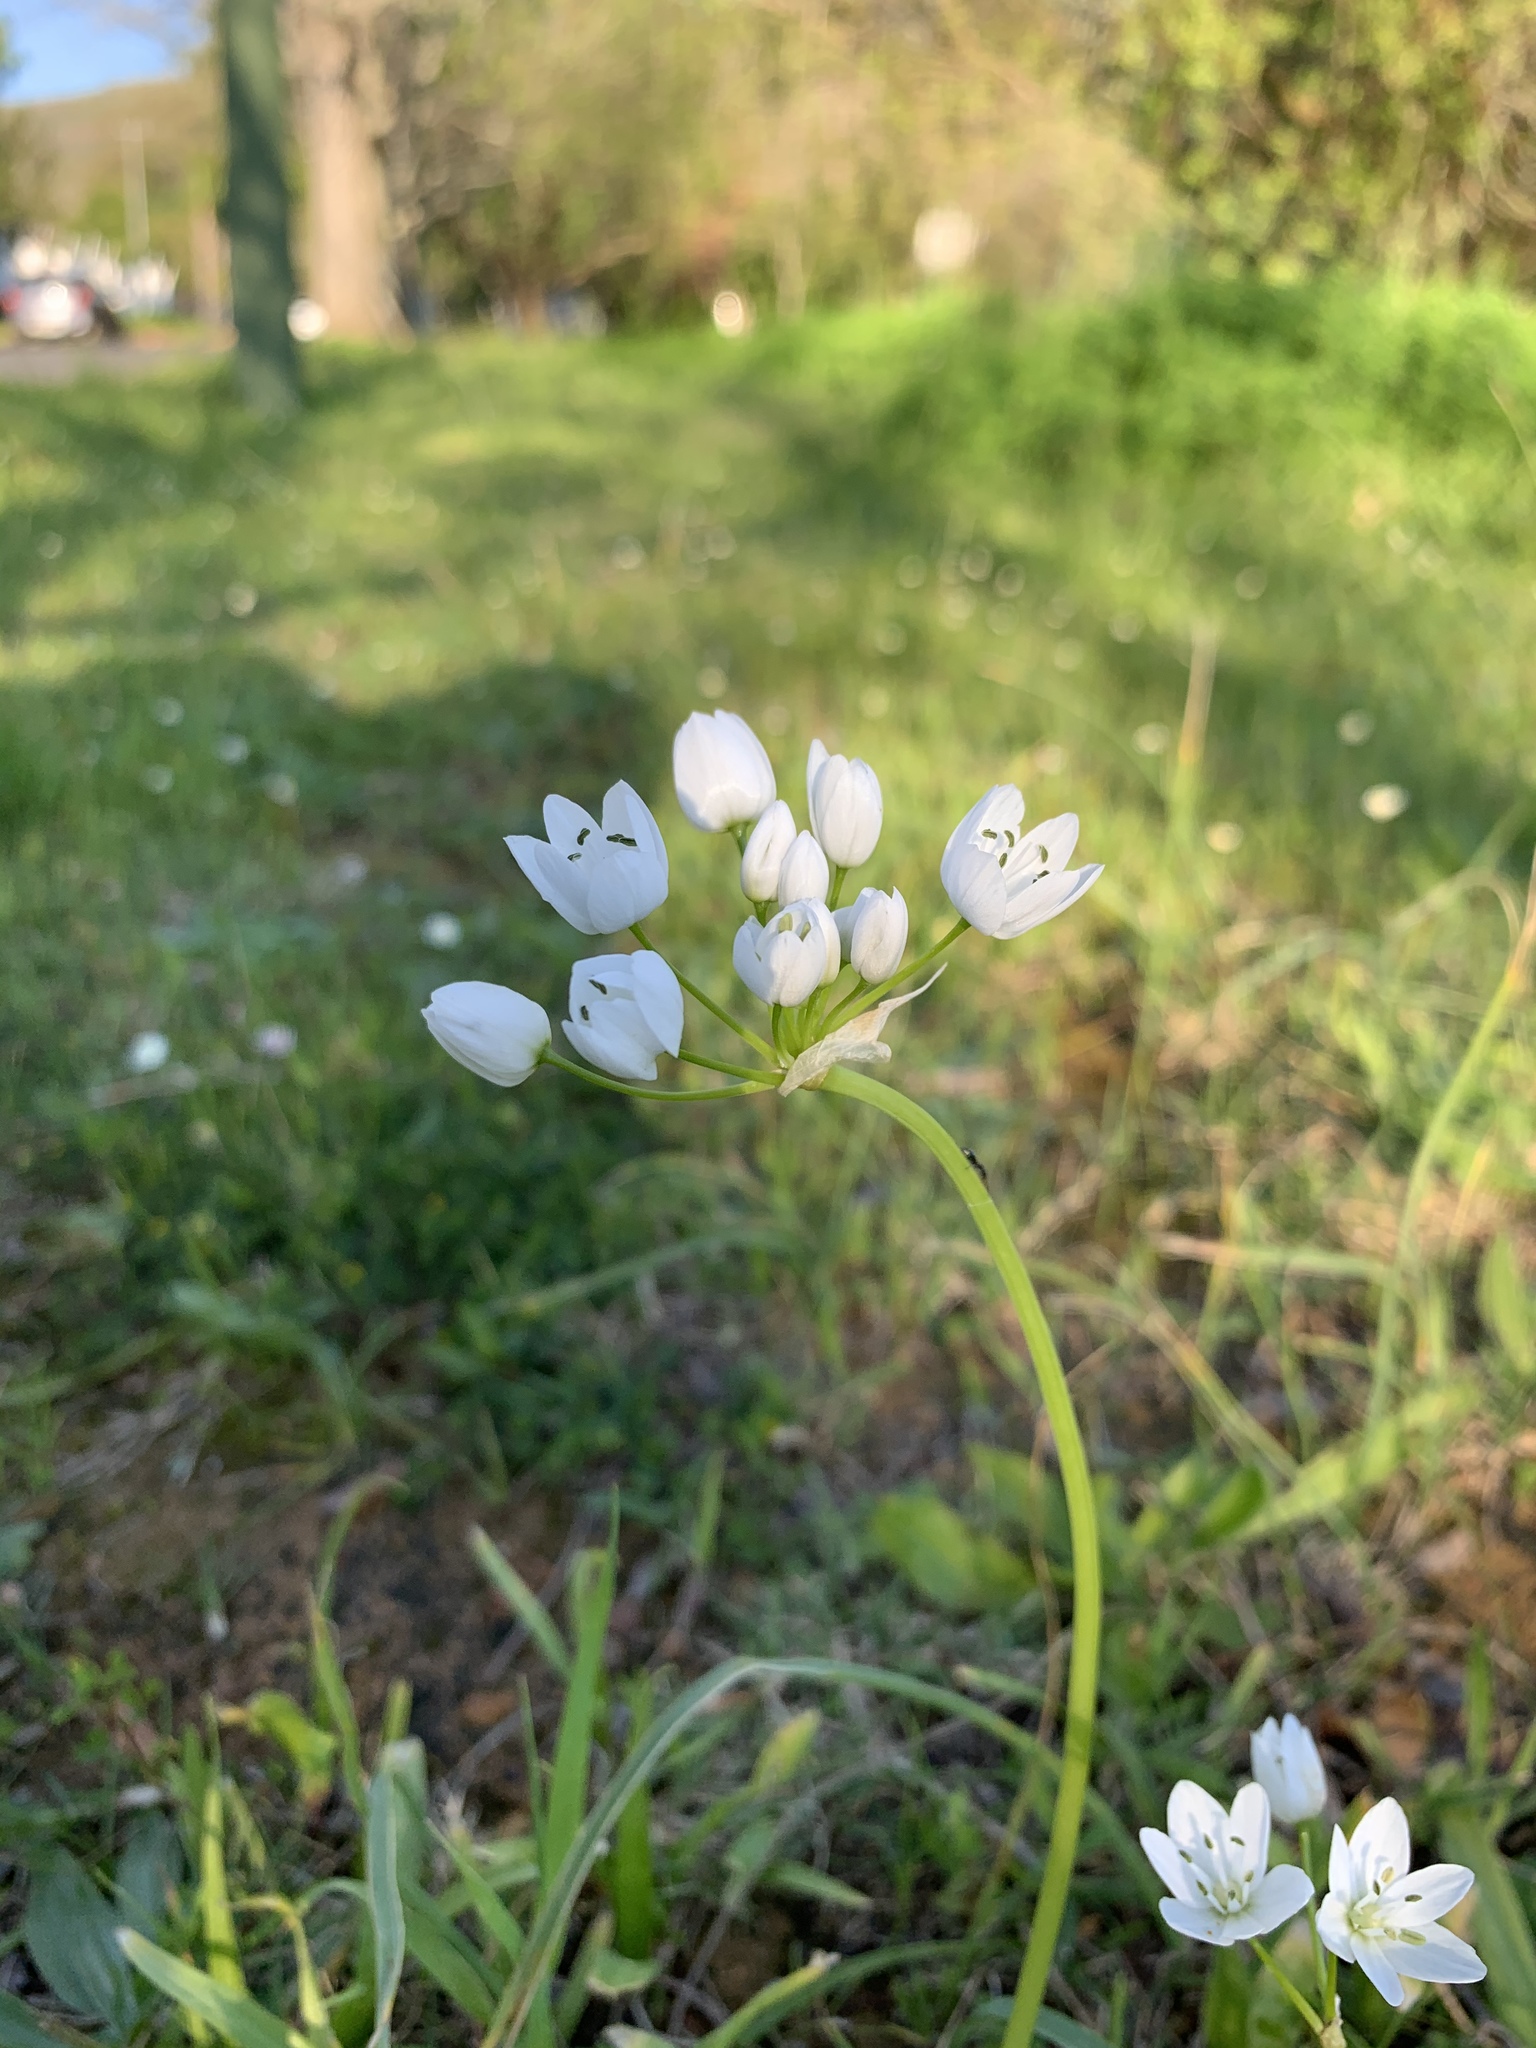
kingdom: Plantae
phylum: Tracheophyta
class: Liliopsida
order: Asparagales
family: Amaryllidaceae
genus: Allium
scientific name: Allium neapolitanum
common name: Neapolitan garlic
